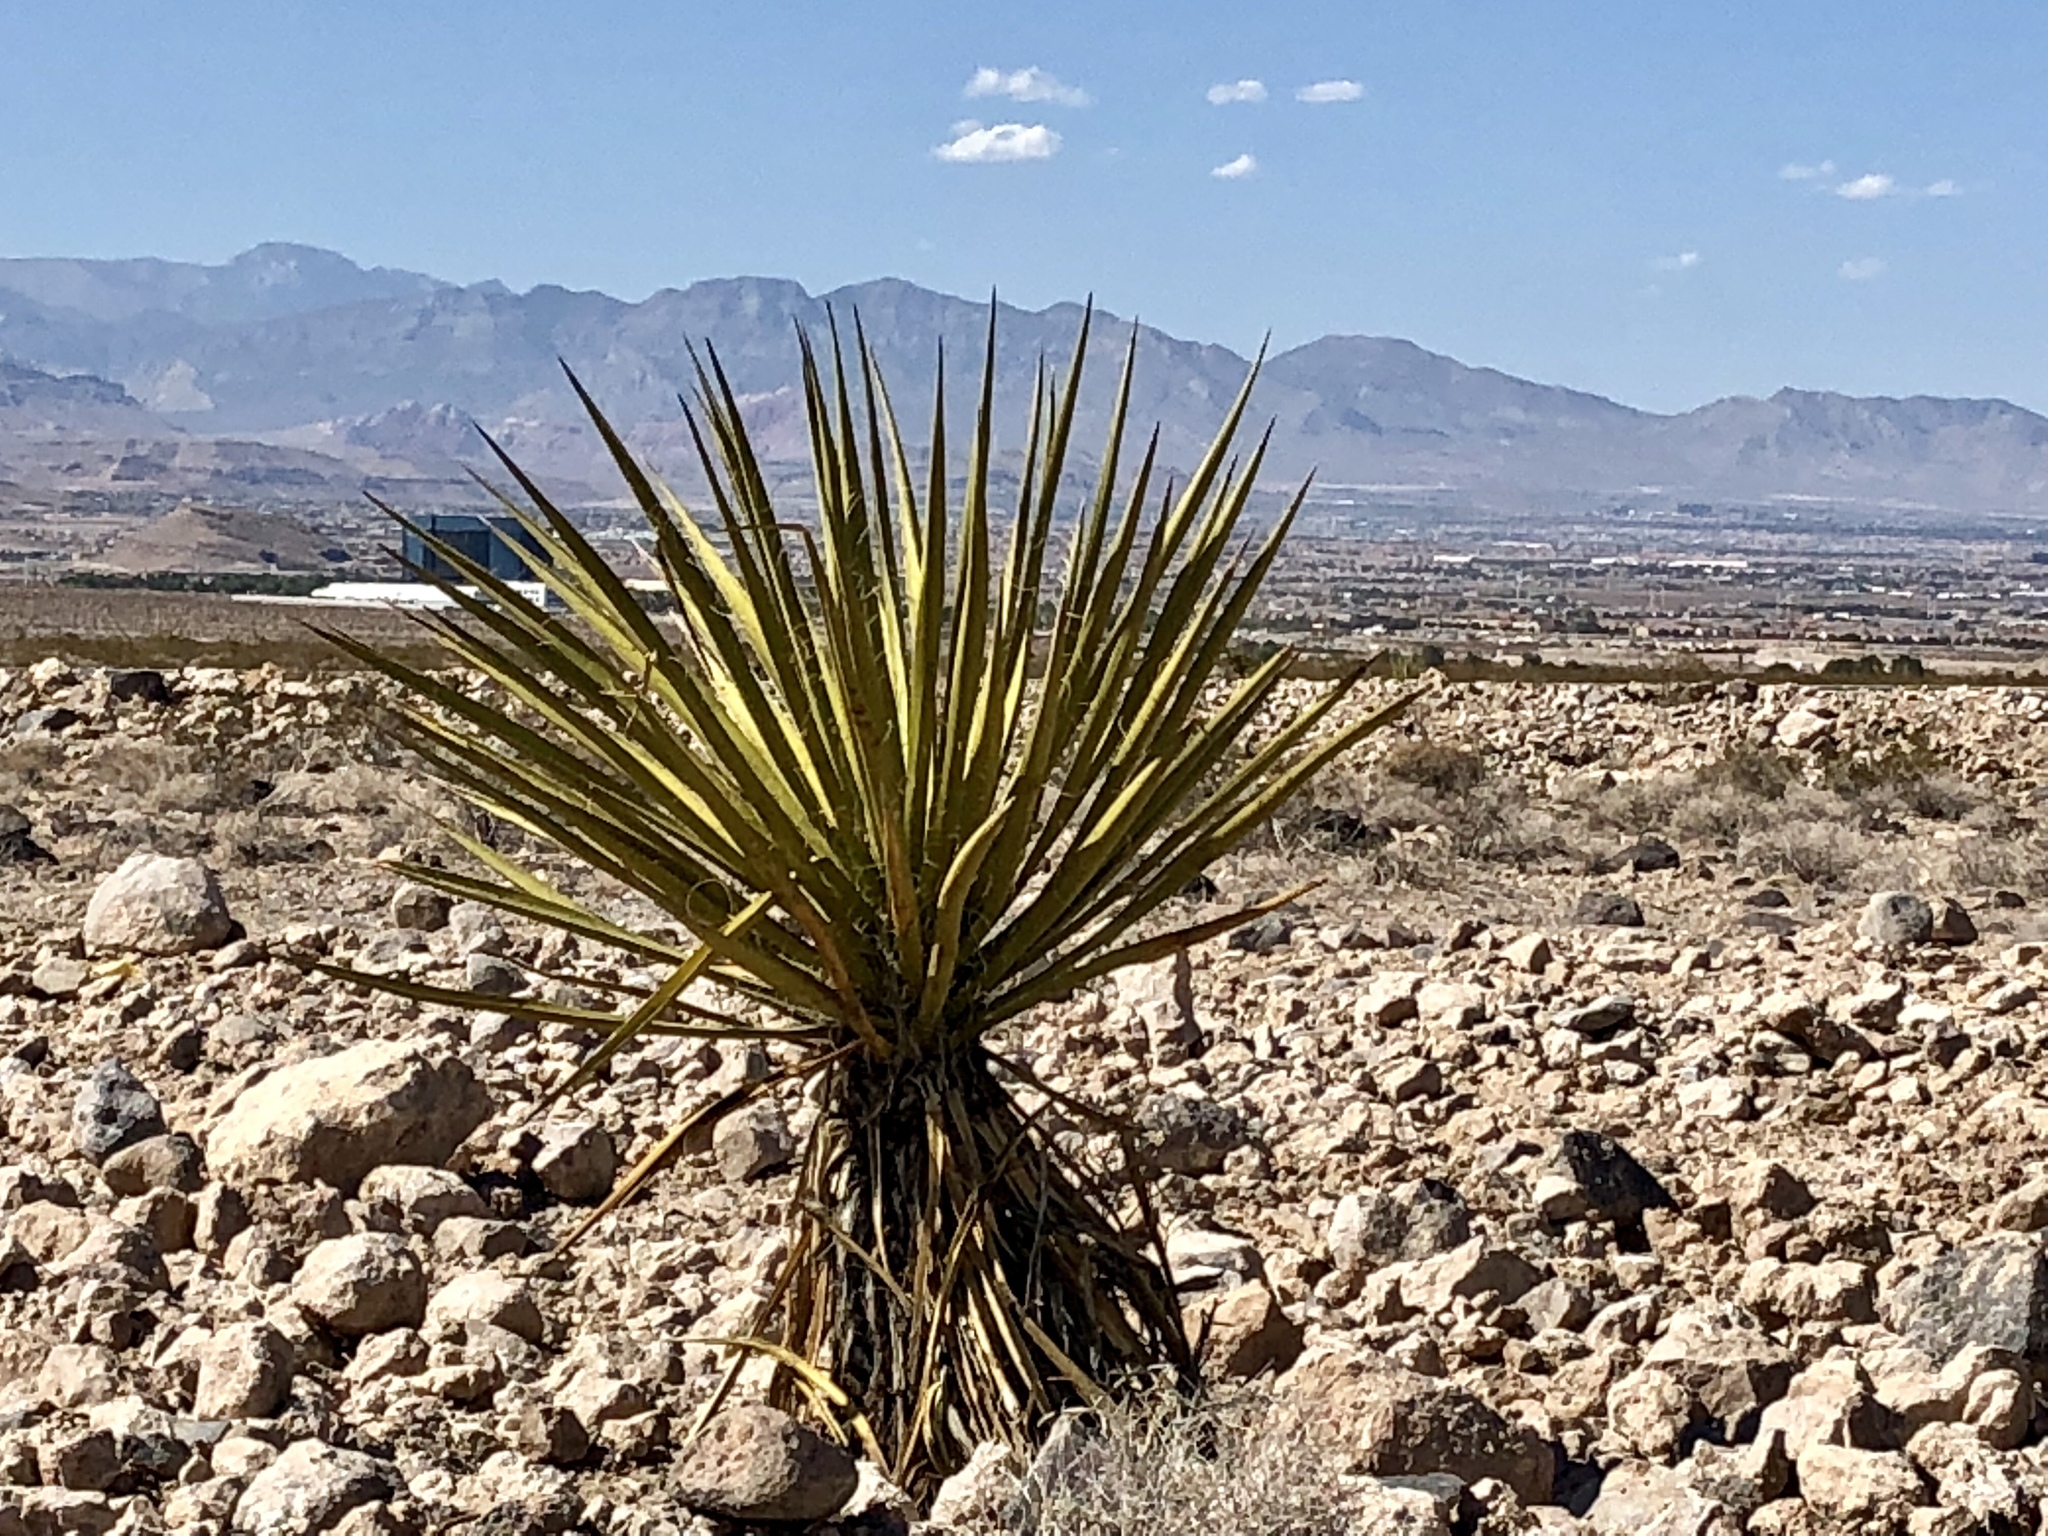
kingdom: Plantae
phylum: Tracheophyta
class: Liliopsida
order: Asparagales
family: Asparagaceae
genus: Yucca
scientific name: Yucca schidigera
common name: Mojave yucca
